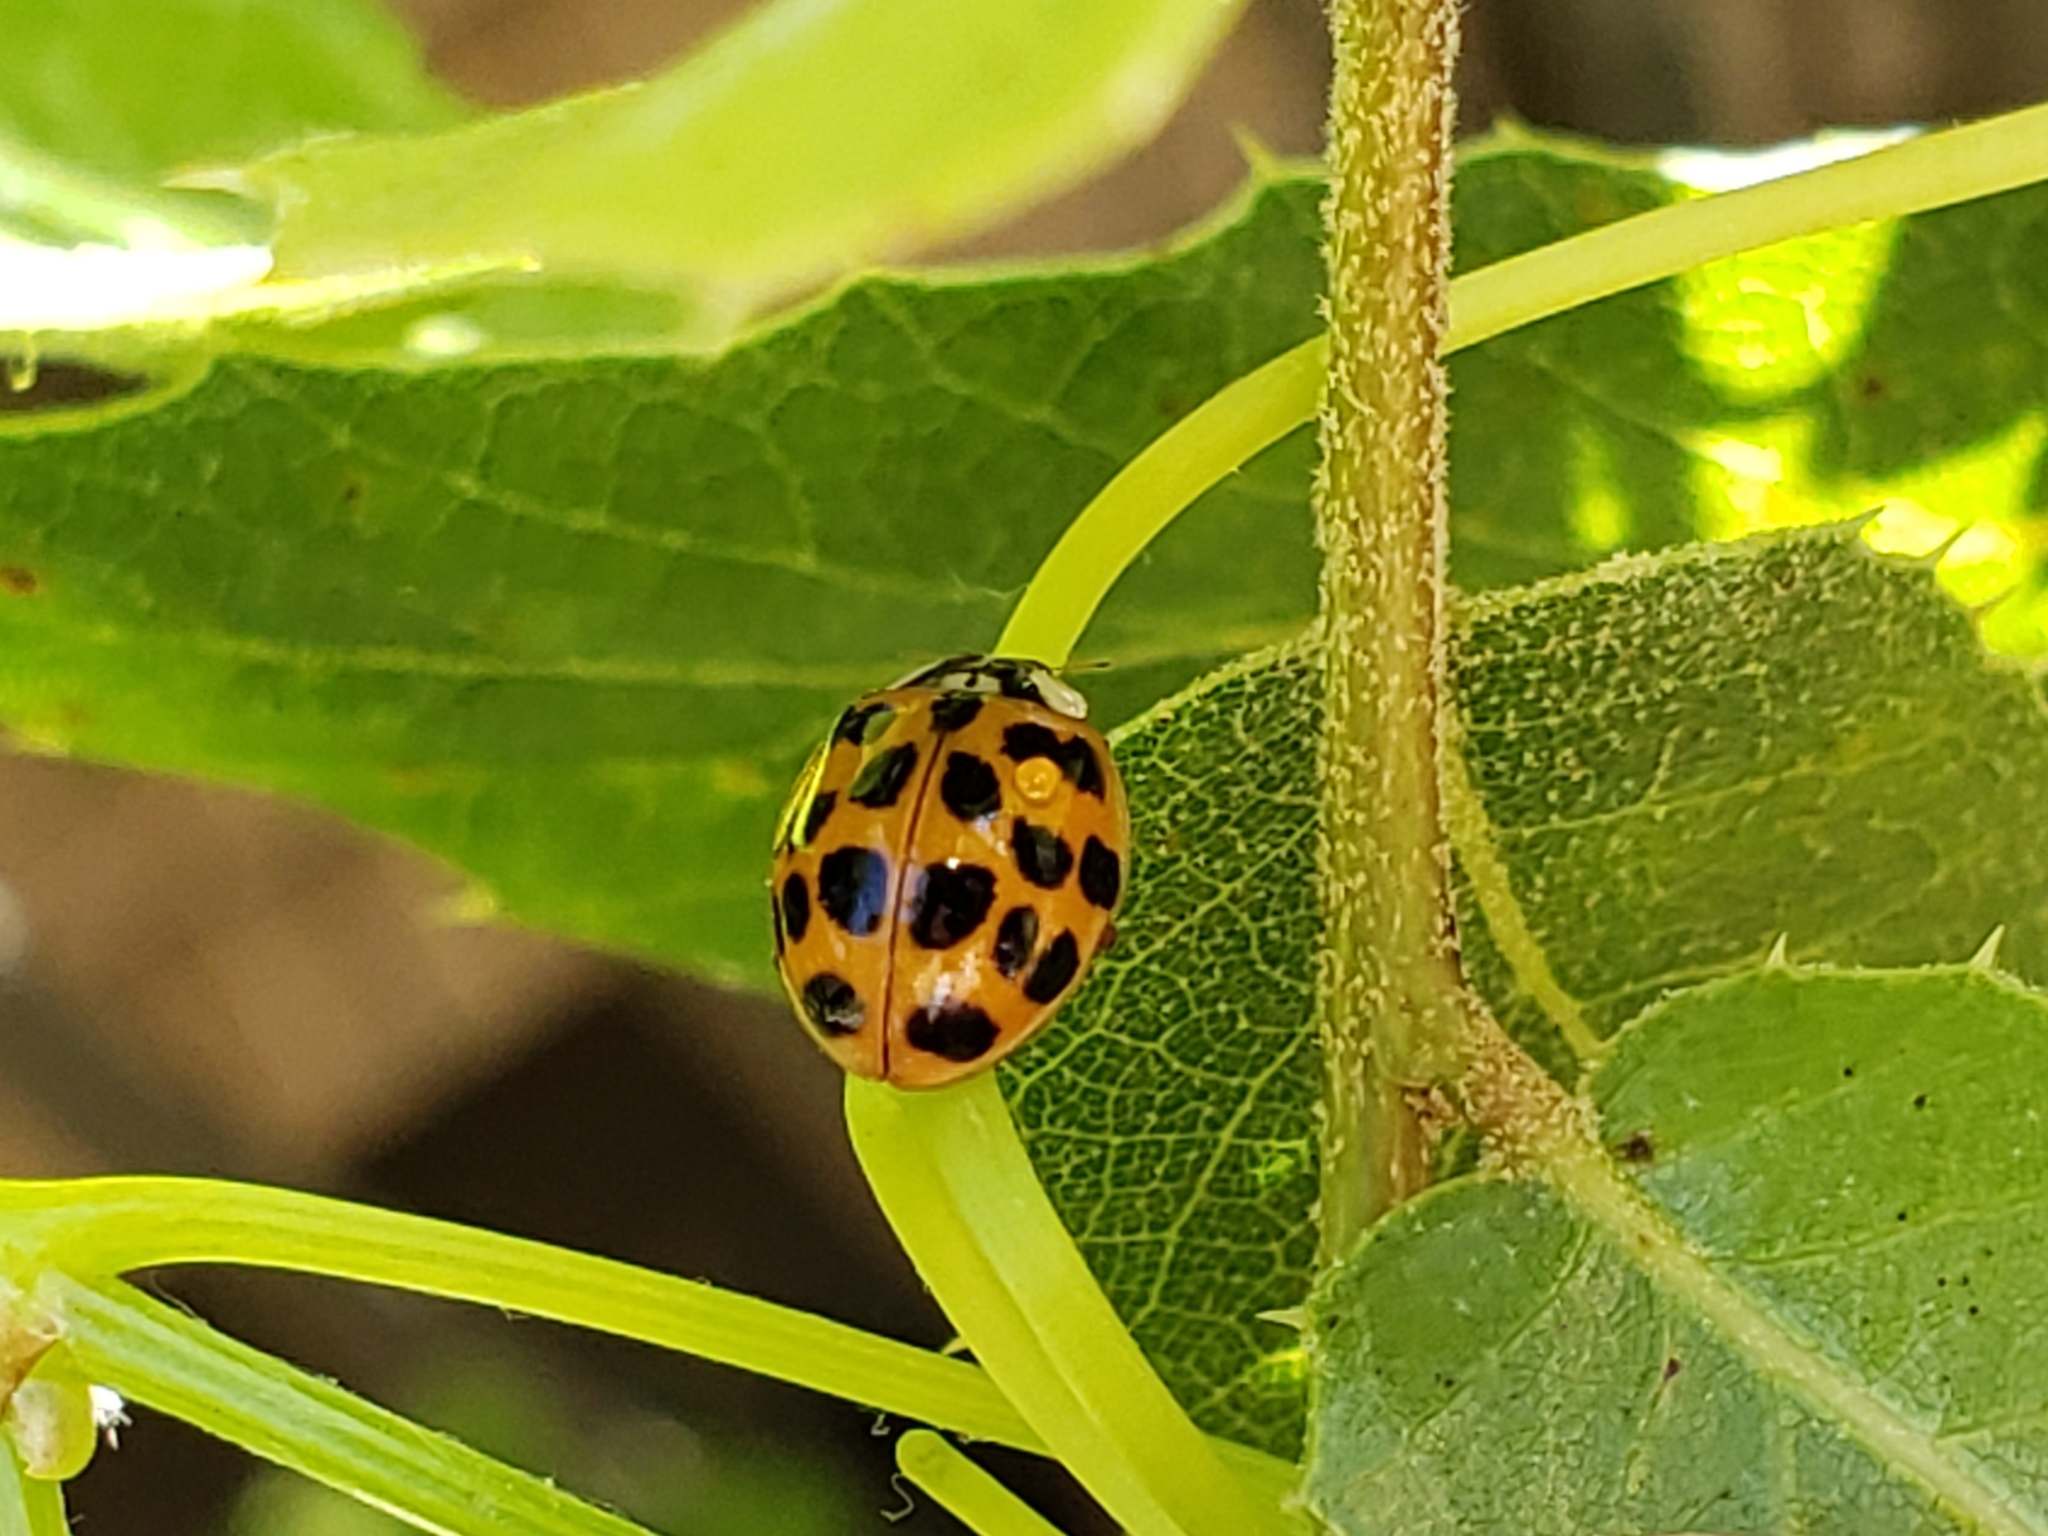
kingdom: Animalia
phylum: Arthropoda
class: Insecta
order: Coleoptera
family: Coccinellidae
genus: Harmonia
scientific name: Harmonia axyridis
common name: Harlequin ladybird
